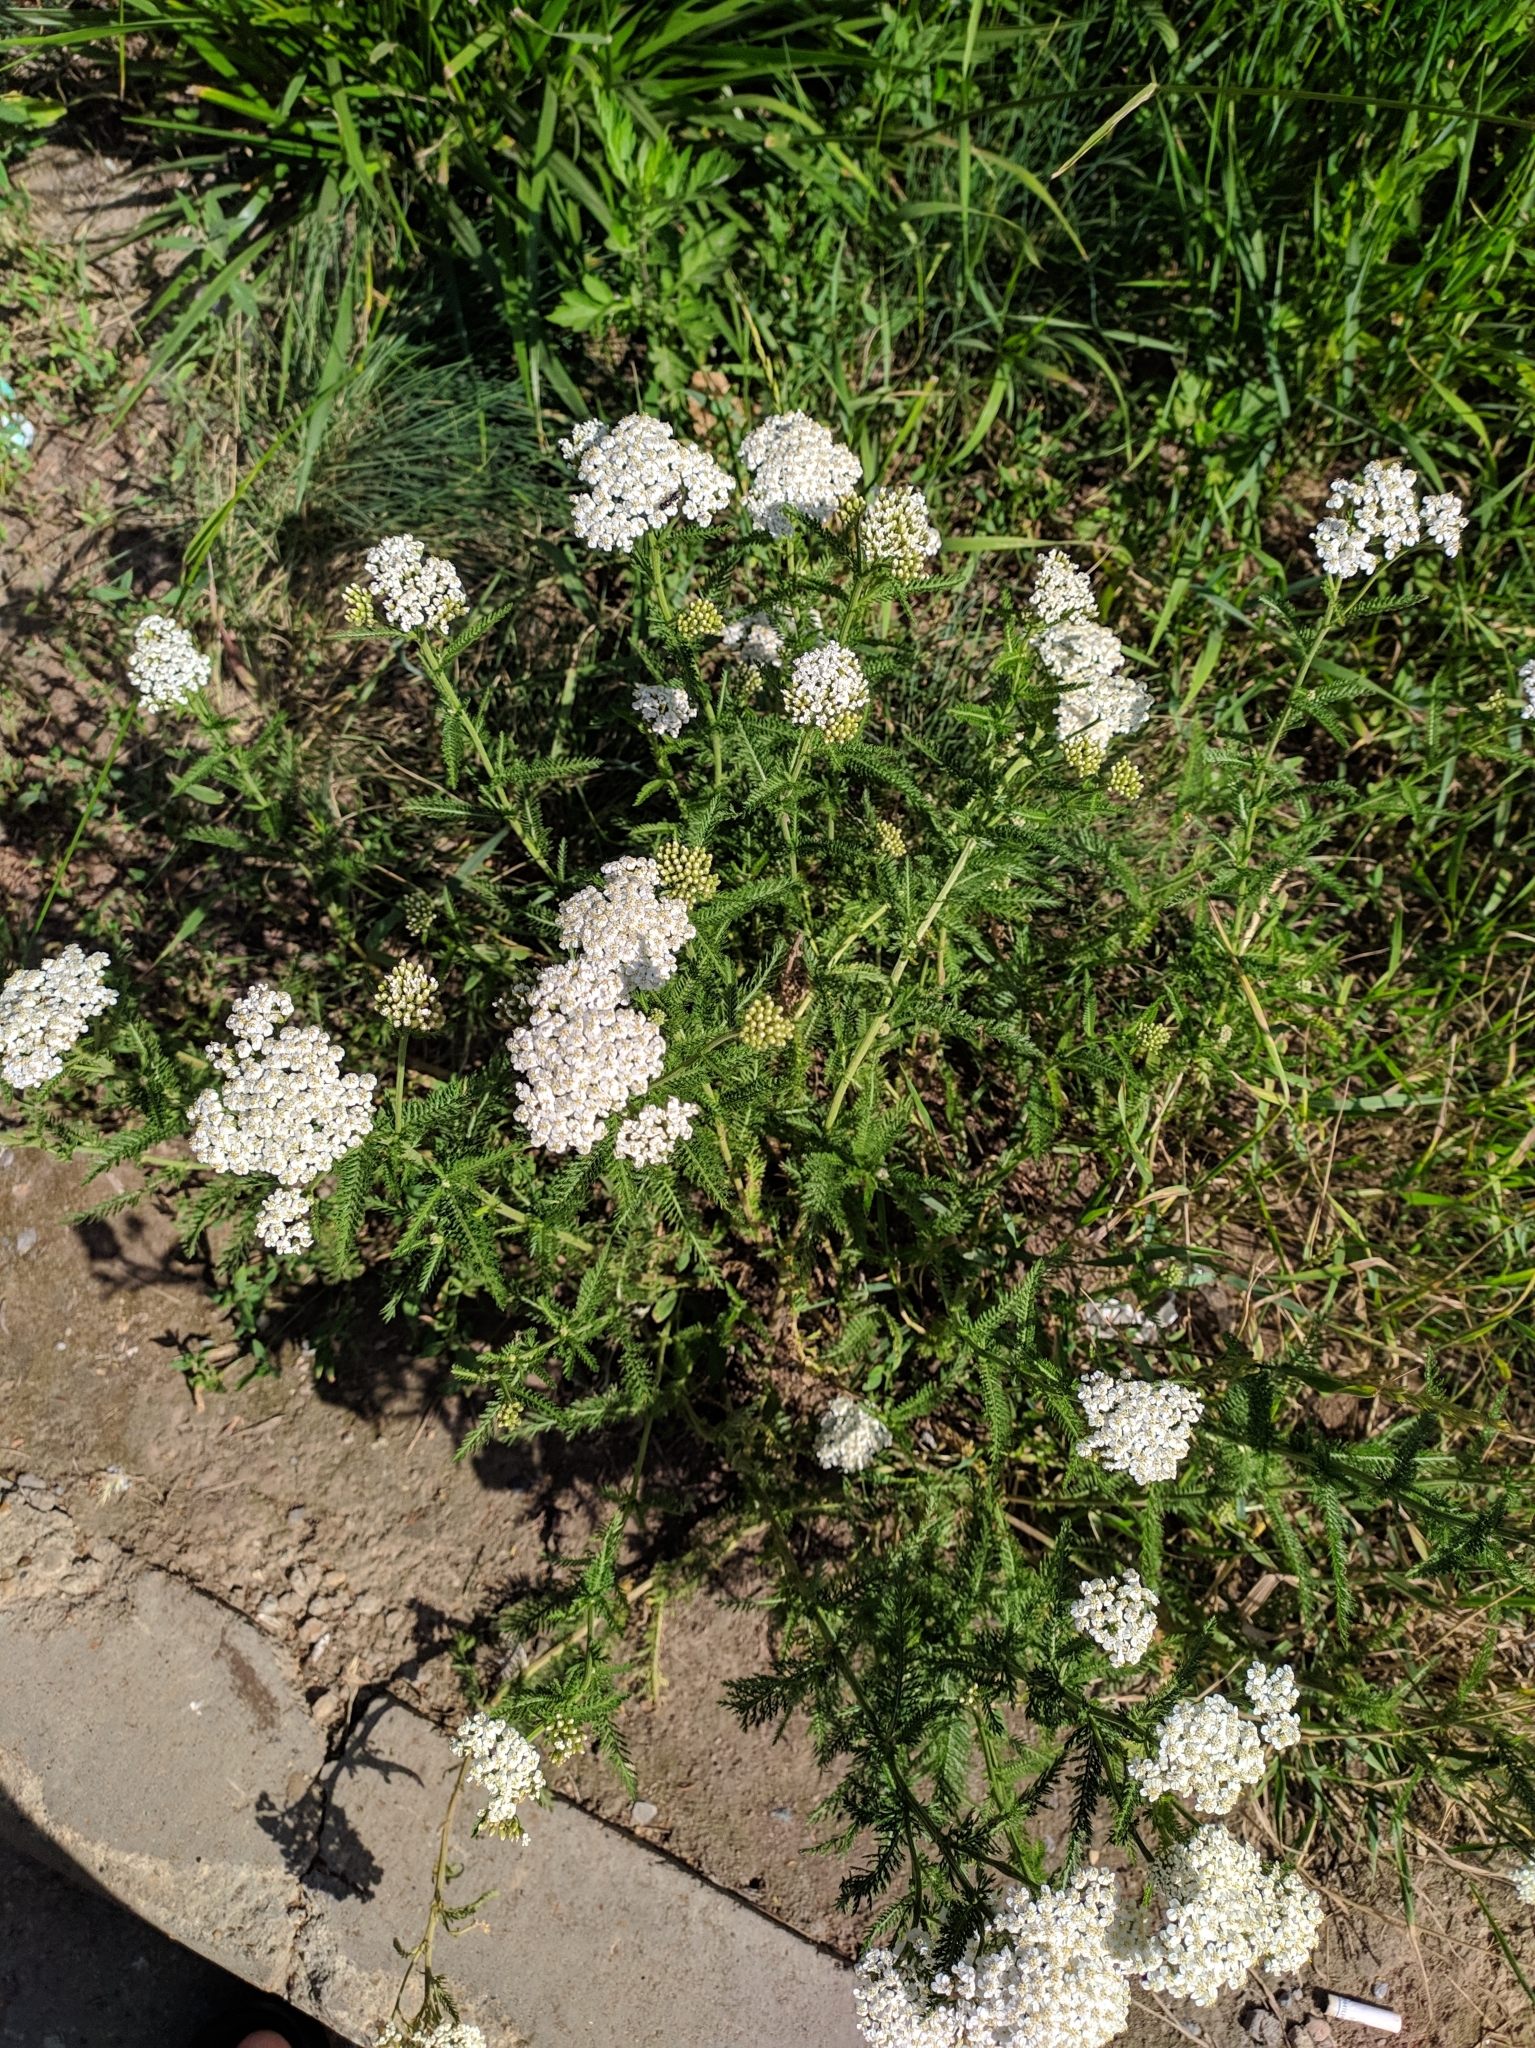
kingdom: Plantae
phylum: Tracheophyta
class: Magnoliopsida
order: Asterales
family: Asteraceae
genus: Achillea
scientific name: Achillea millefolium
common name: Yarrow
